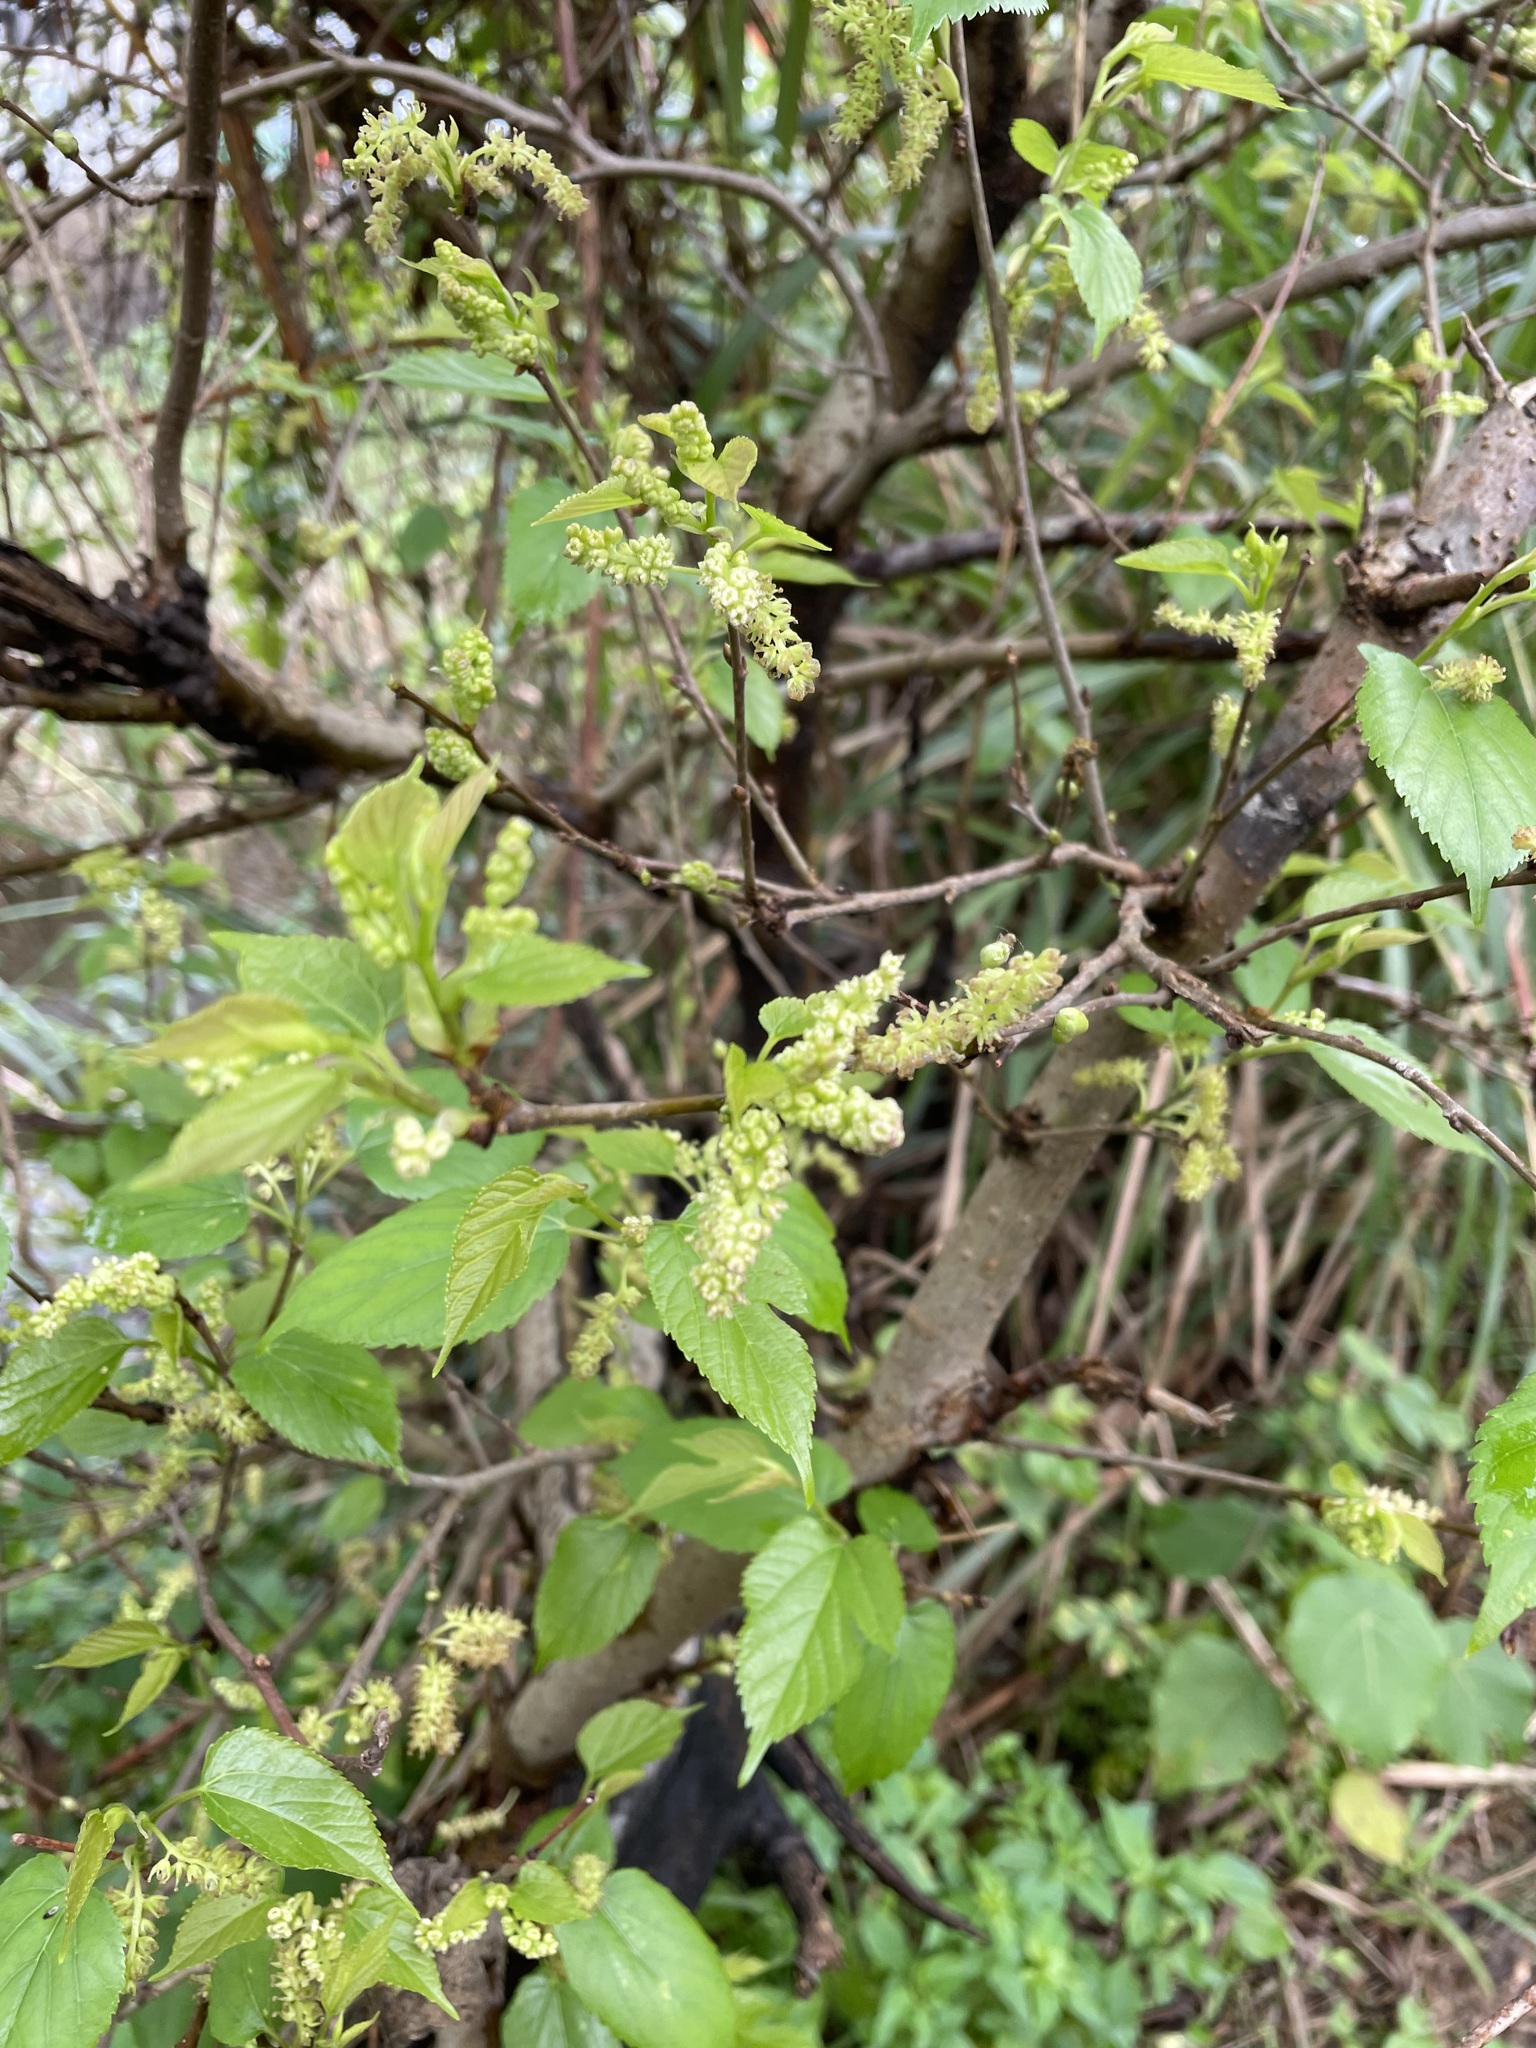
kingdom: Plantae
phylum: Tracheophyta
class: Magnoliopsida
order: Rosales
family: Moraceae
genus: Morus
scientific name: Morus indica
